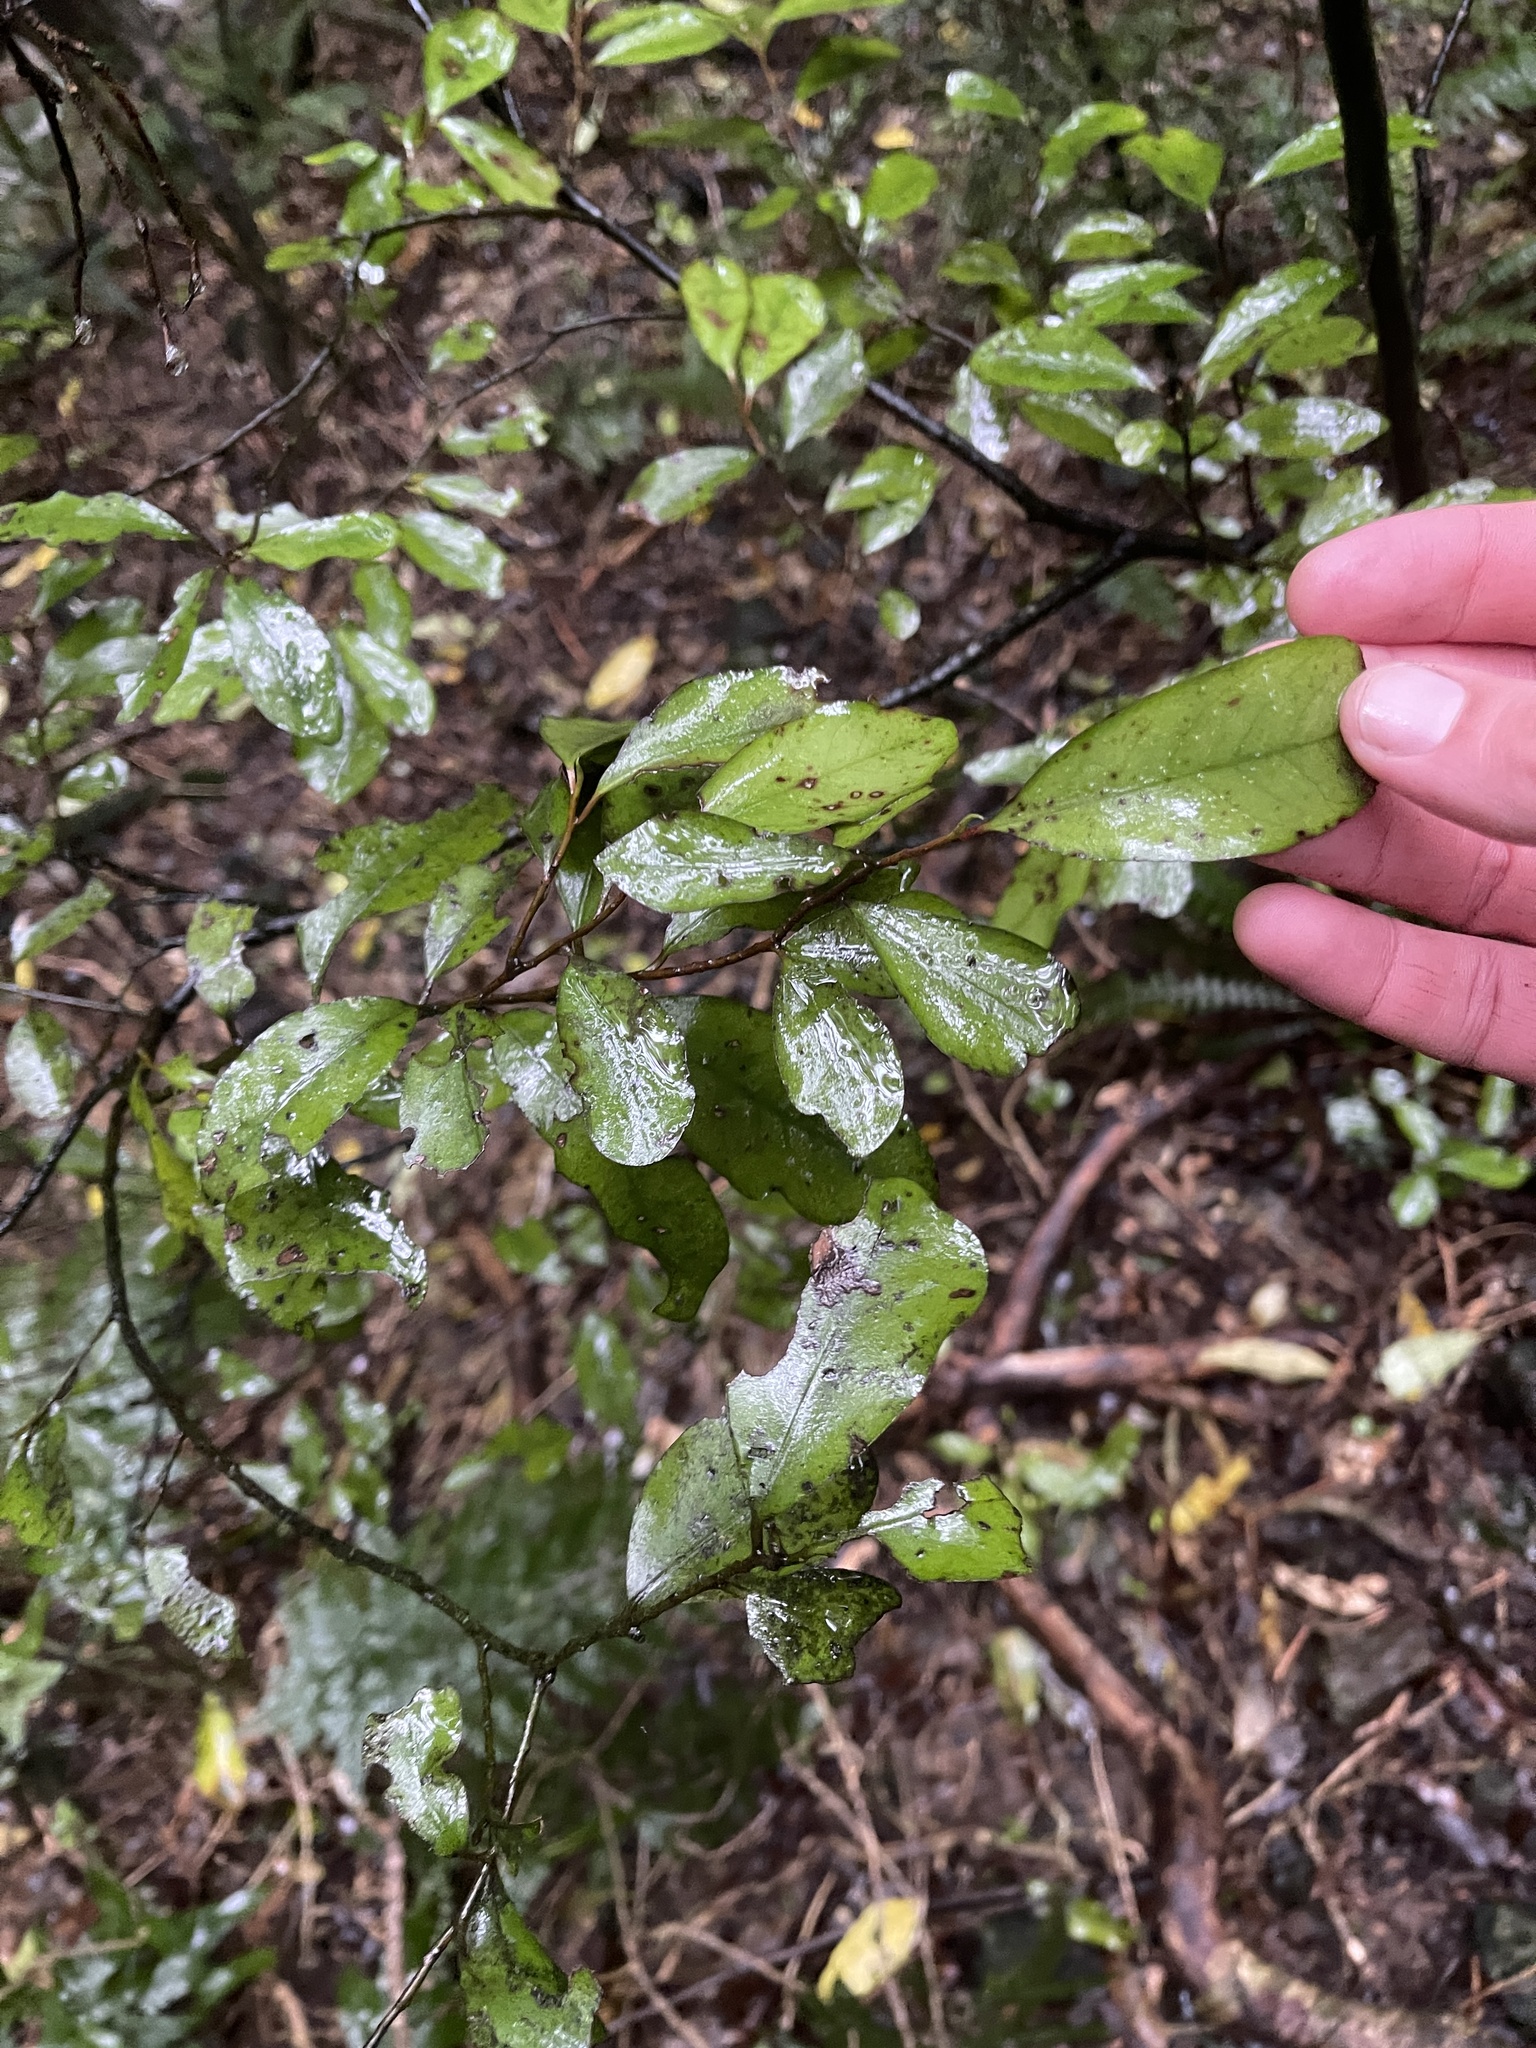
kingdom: Plantae
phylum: Tracheophyta
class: Magnoliopsida
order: Canellales
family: Winteraceae
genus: Pseudowintera
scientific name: Pseudowintera colorata
